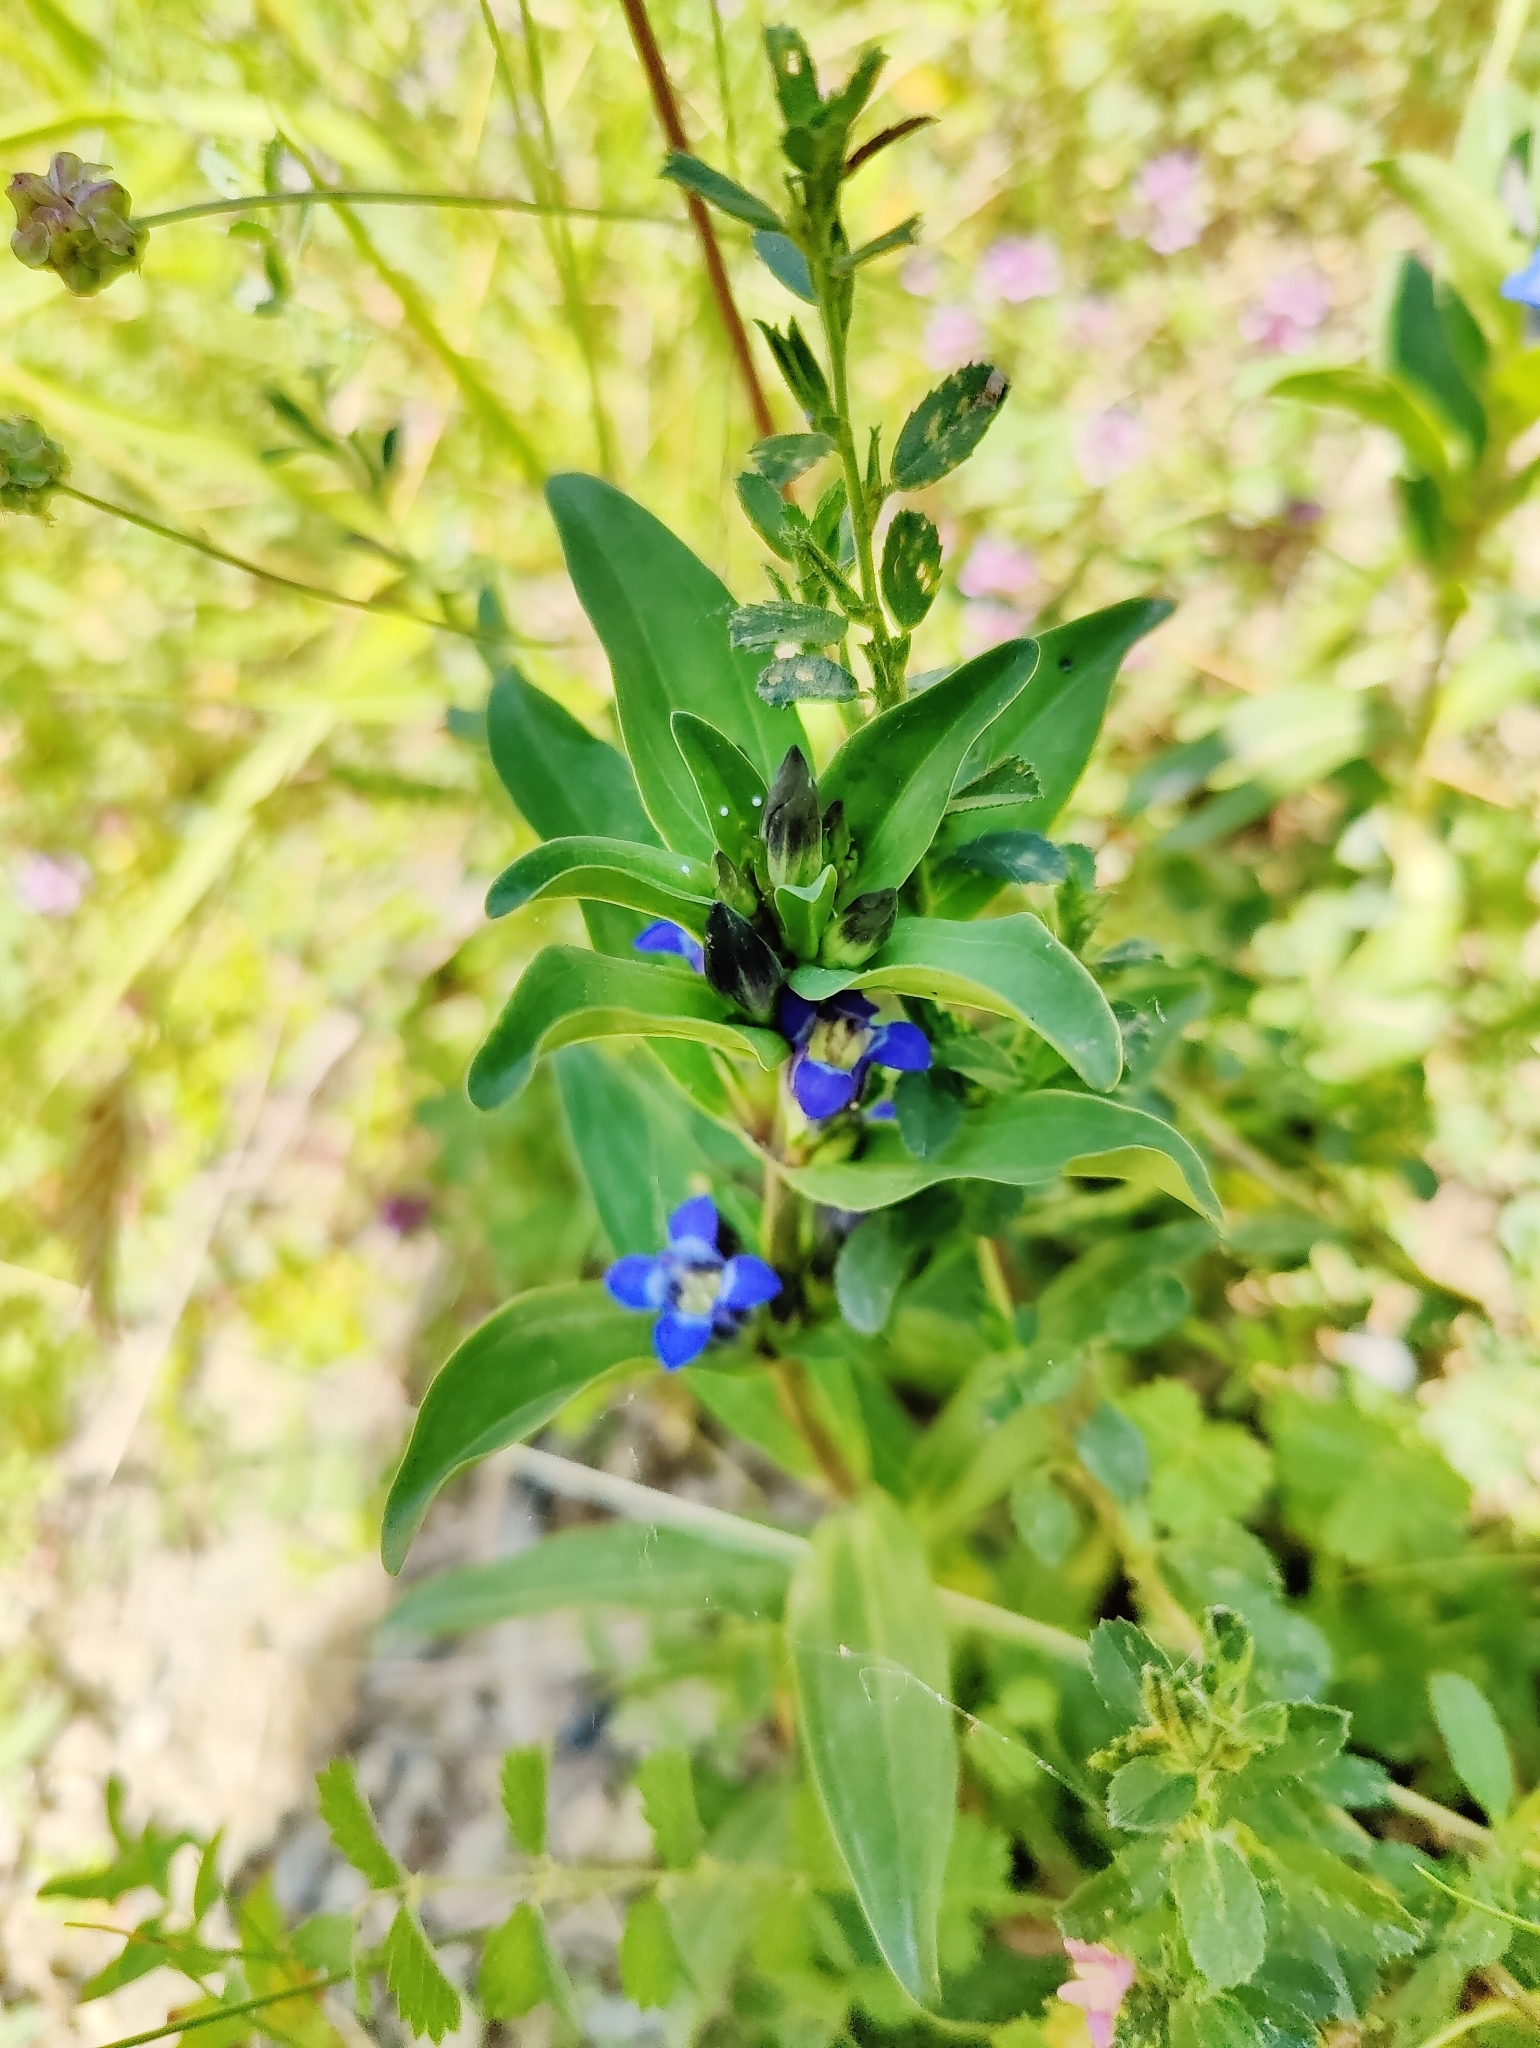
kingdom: Plantae
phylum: Tracheophyta
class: Magnoliopsida
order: Gentianales
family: Gentianaceae
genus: Gentiana
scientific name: Gentiana cruciata
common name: Cross gentian
